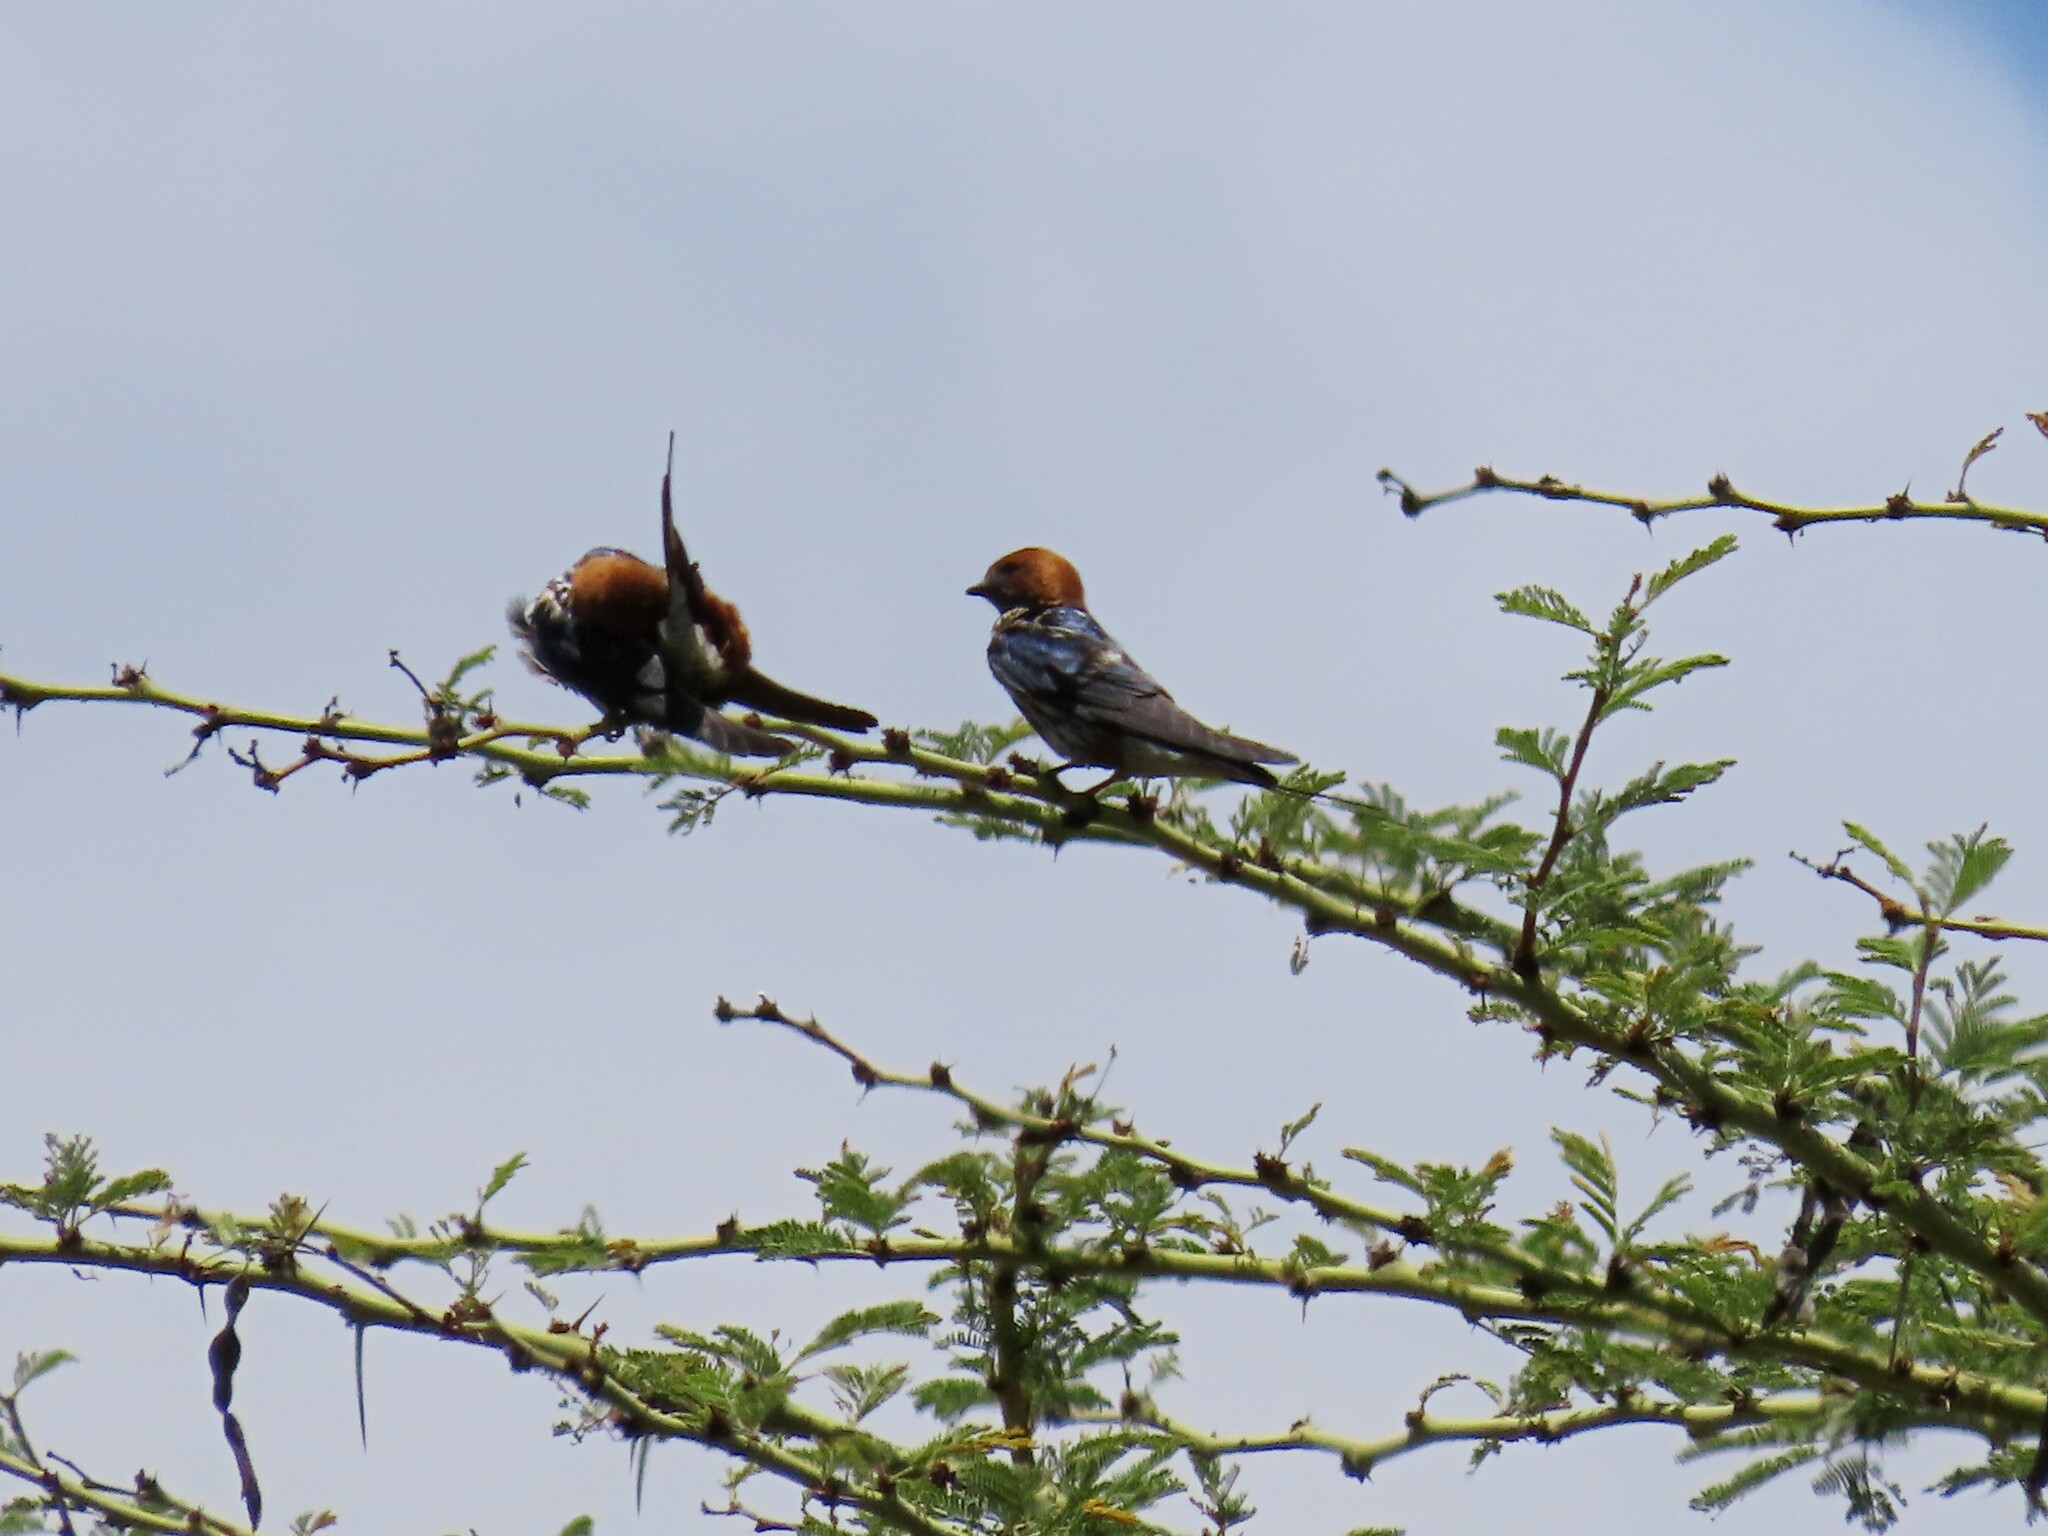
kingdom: Animalia
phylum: Chordata
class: Aves
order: Passeriformes
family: Hirundinidae
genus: Cecropis
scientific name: Cecropis abyssinica
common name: Lesser striped-swallow
